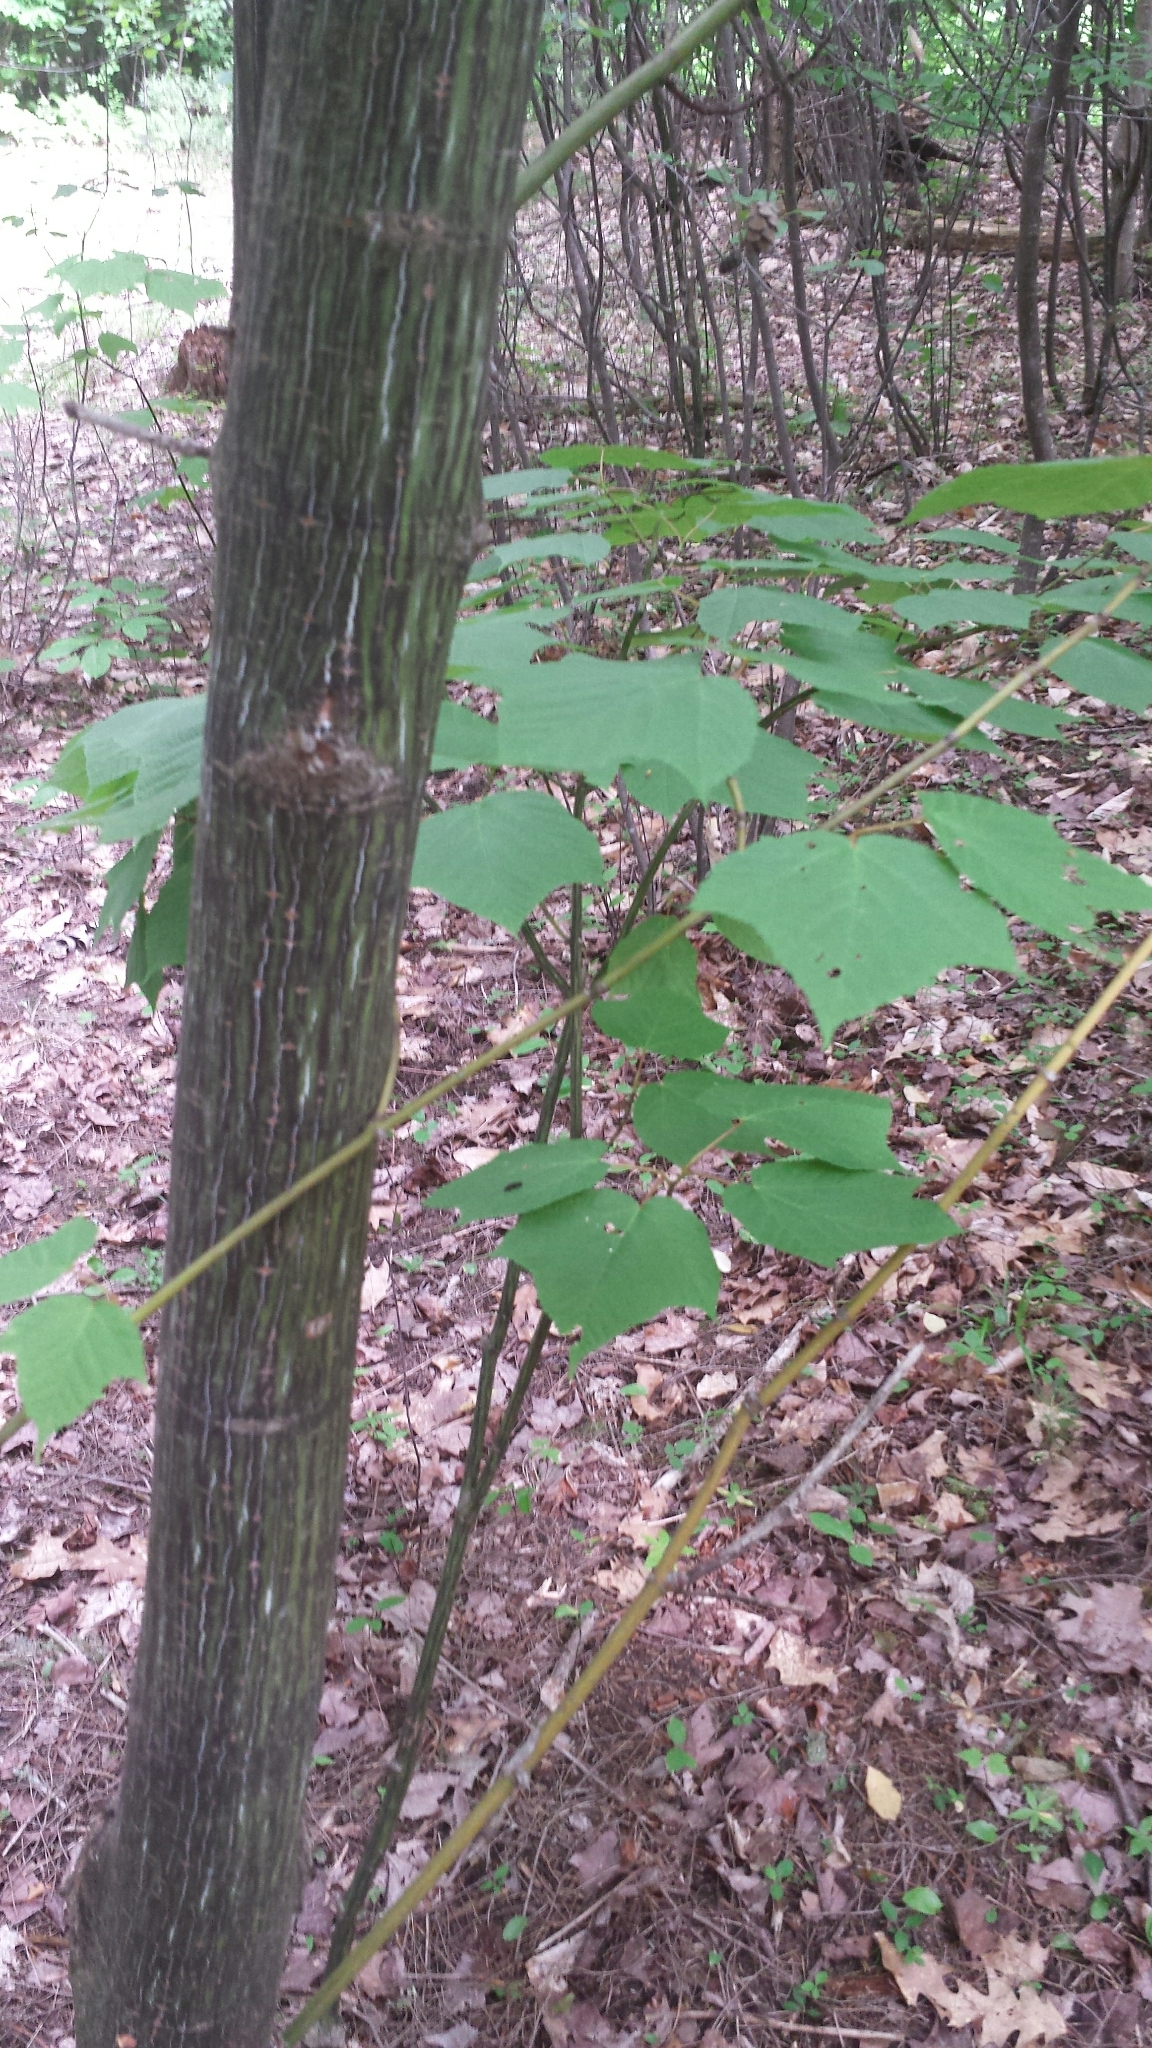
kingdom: Plantae
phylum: Tracheophyta
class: Magnoliopsida
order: Sapindales
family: Sapindaceae
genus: Acer
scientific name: Acer pensylvanicum
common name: Moosewood
